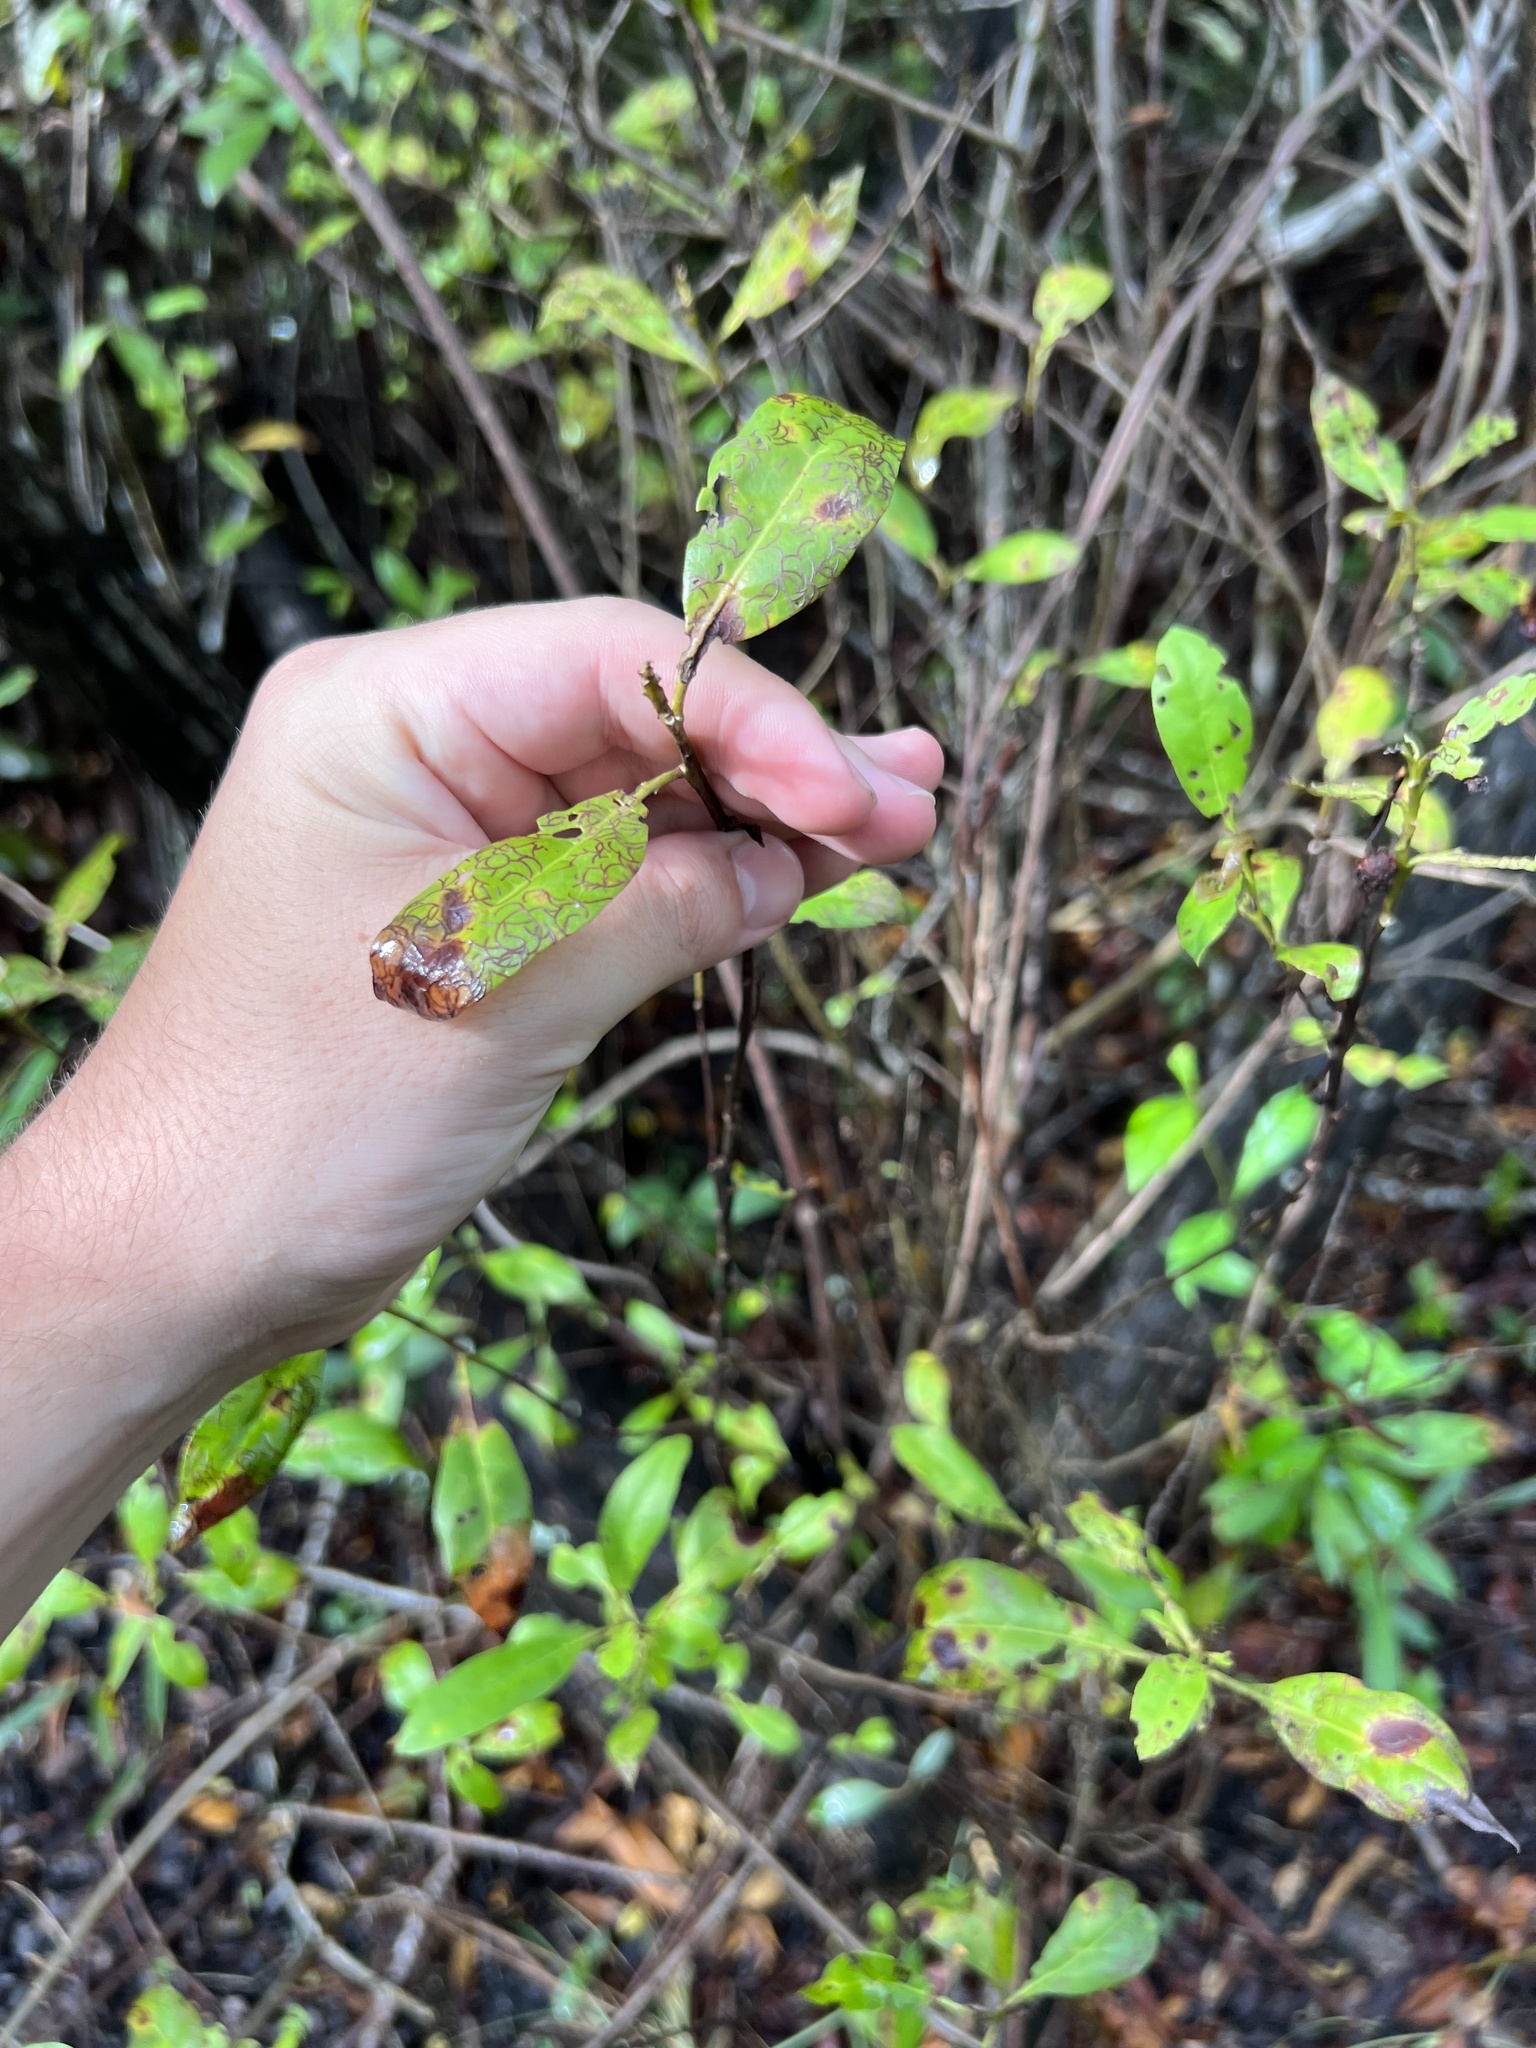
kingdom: Animalia
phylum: Arthropoda
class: Insecta
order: Coleoptera
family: Chrysomelidae
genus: Chaetocnema
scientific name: Chaetocnema brunnescens
